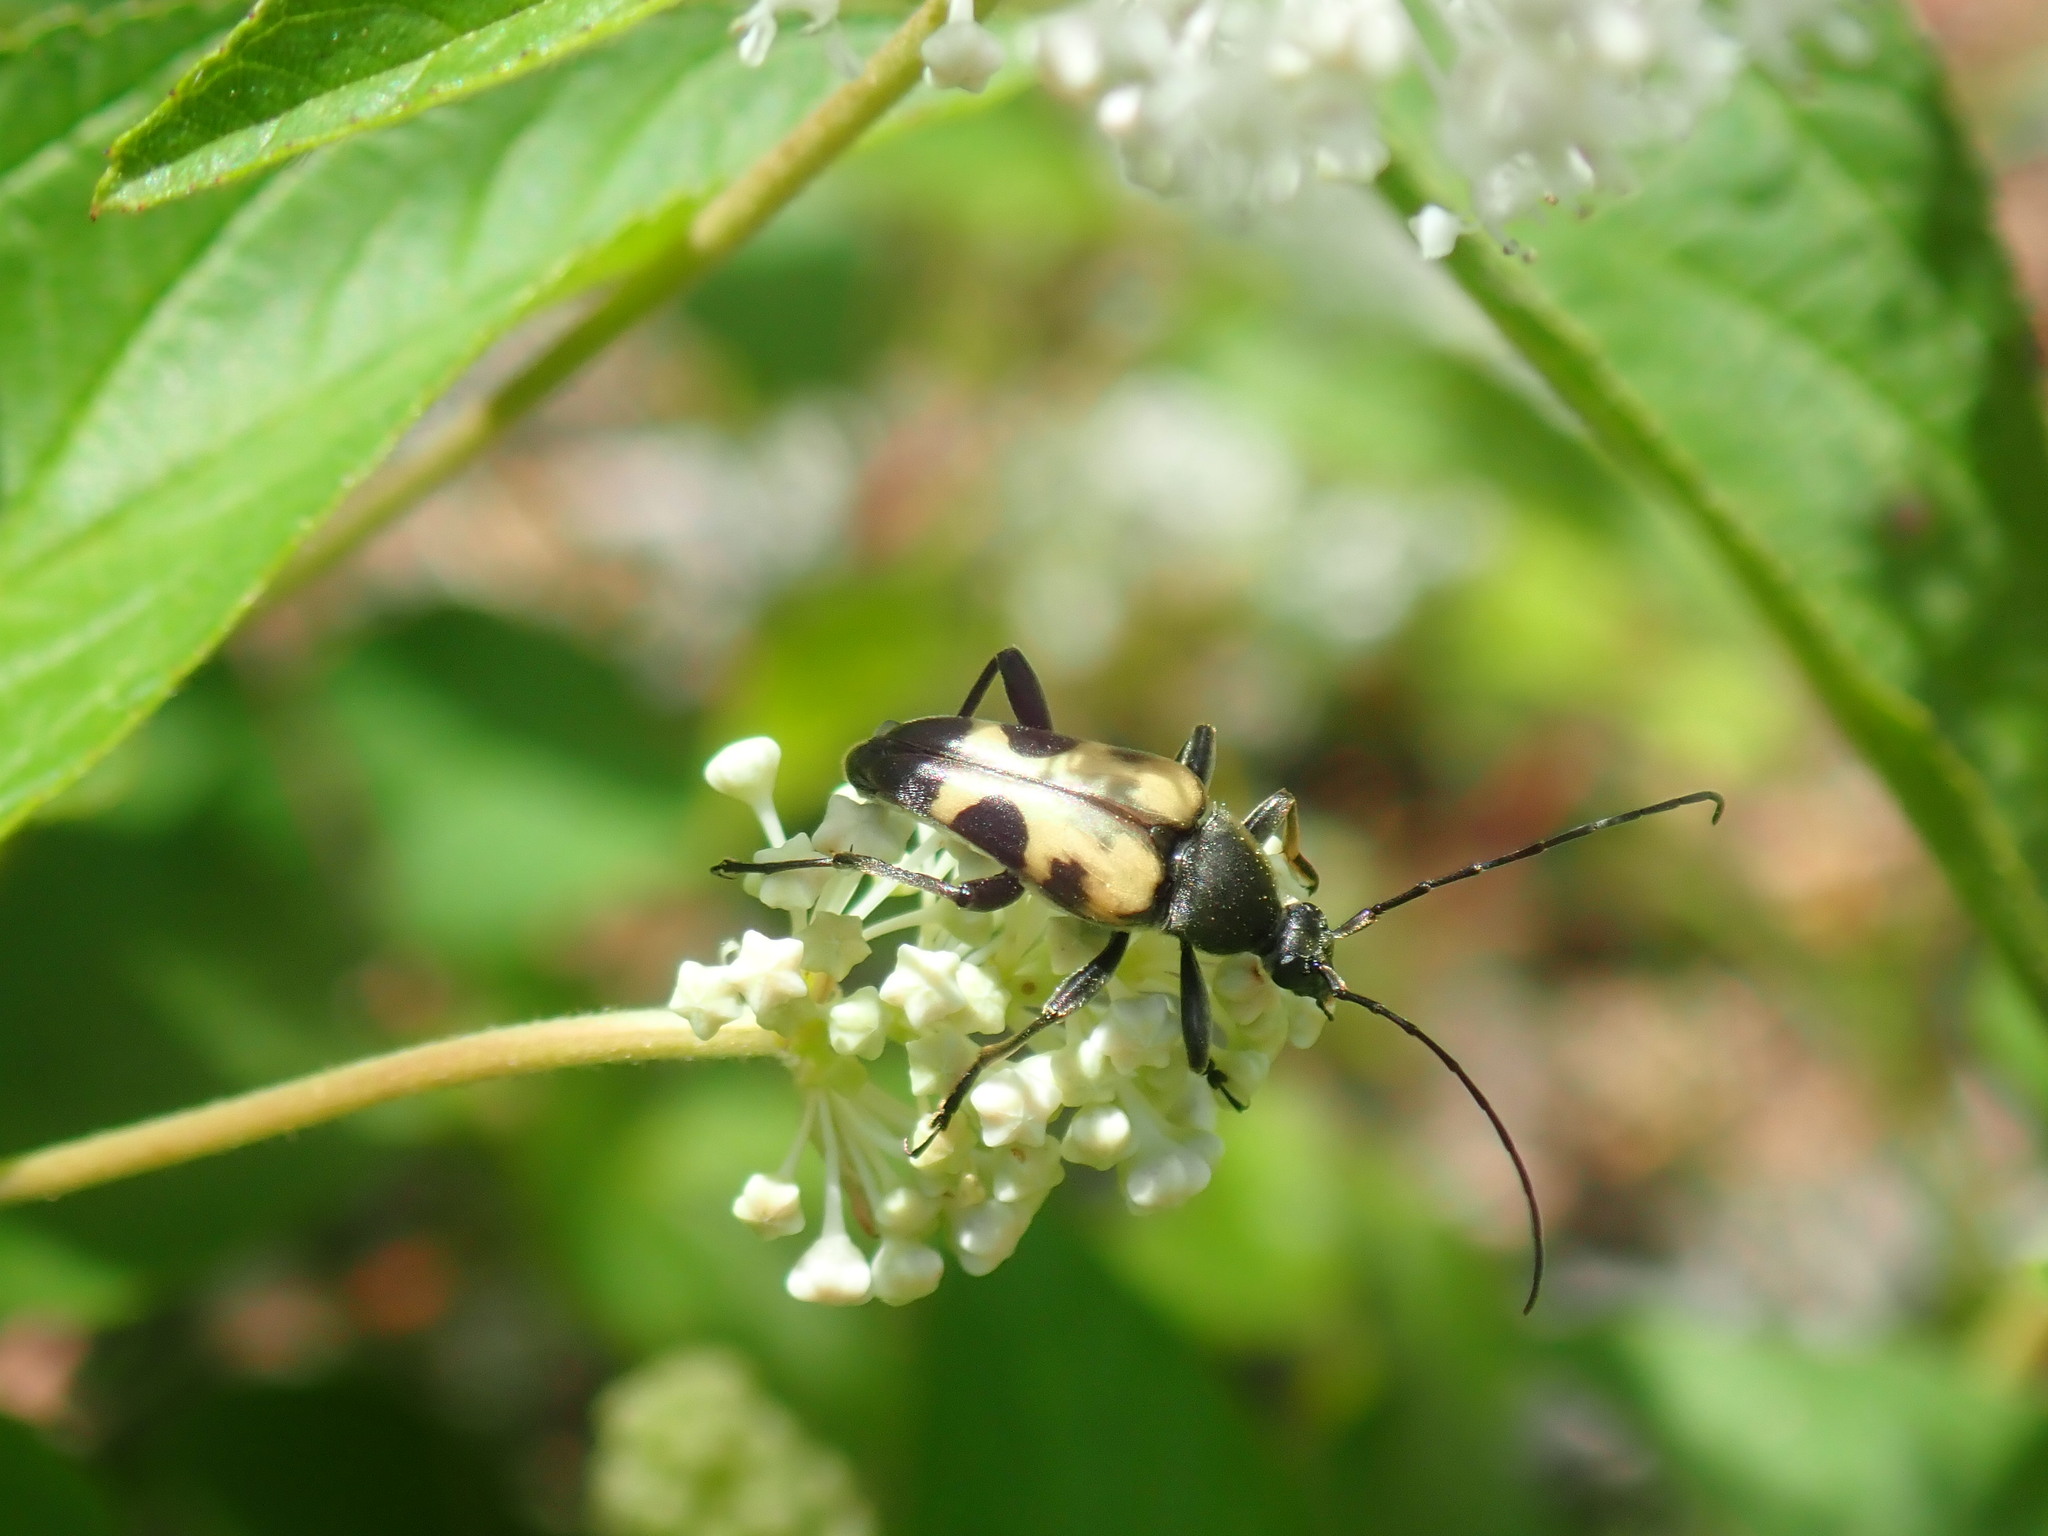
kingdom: Animalia
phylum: Arthropoda
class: Insecta
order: Coleoptera
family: Cerambycidae
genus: Judolia
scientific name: Judolia cordifera
